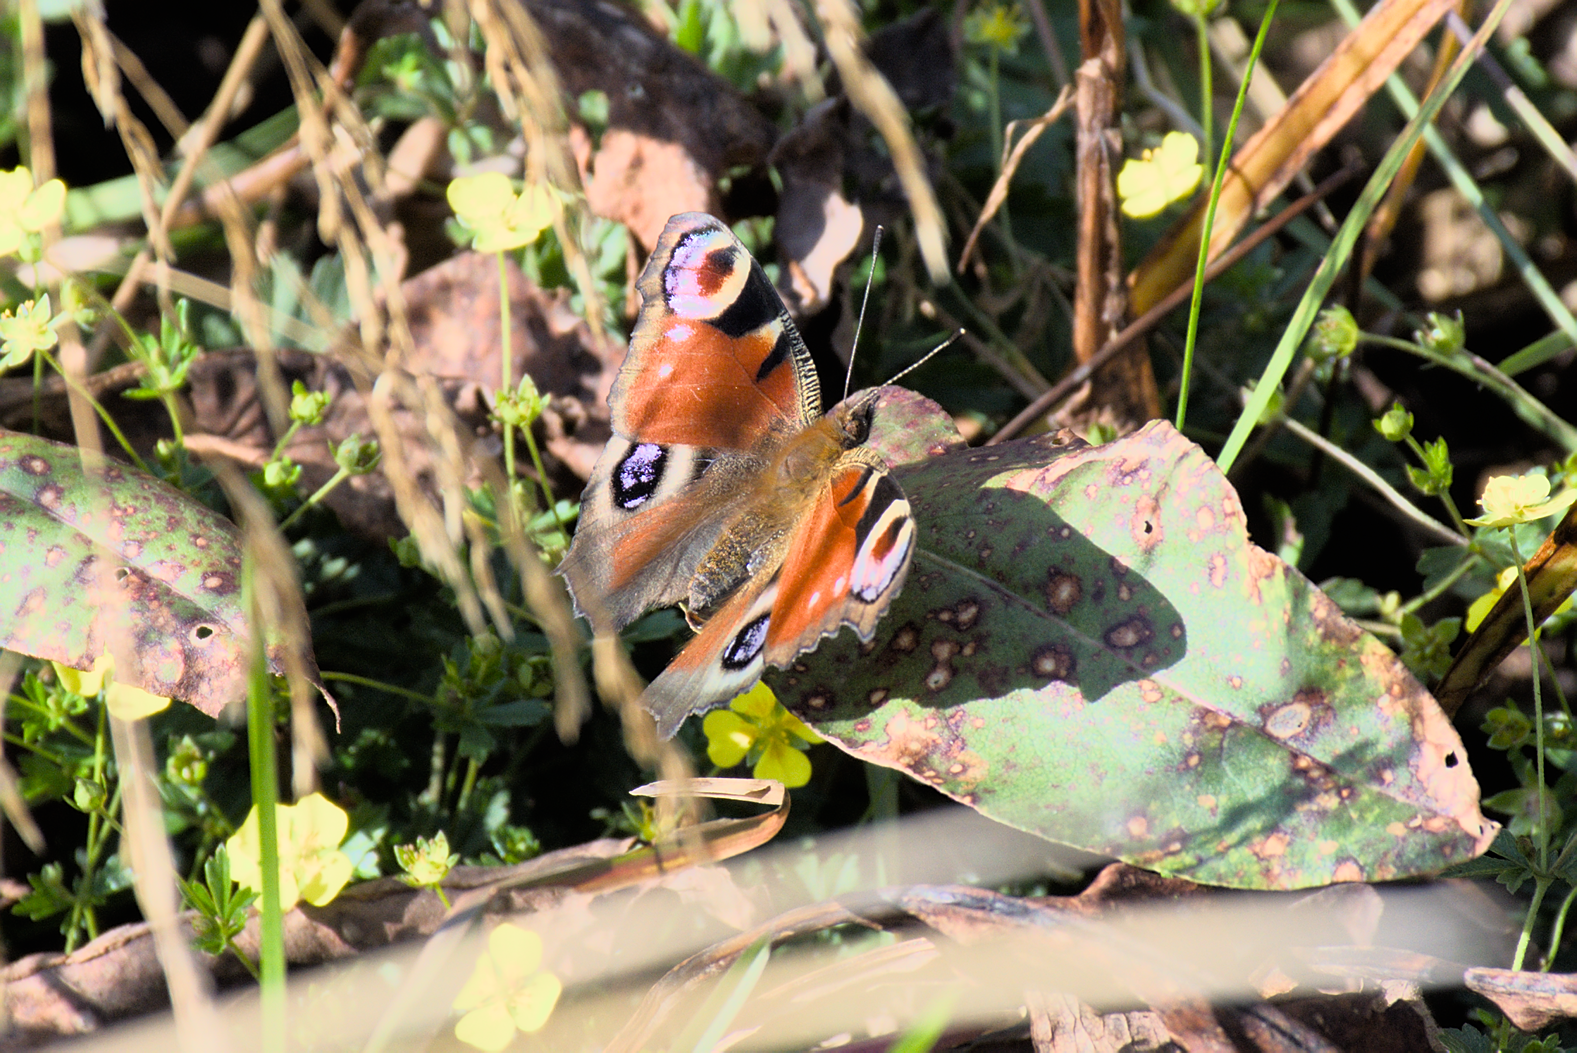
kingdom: Animalia
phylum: Arthropoda
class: Insecta
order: Lepidoptera
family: Nymphalidae
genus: Aglais
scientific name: Aglais io
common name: Peacock
